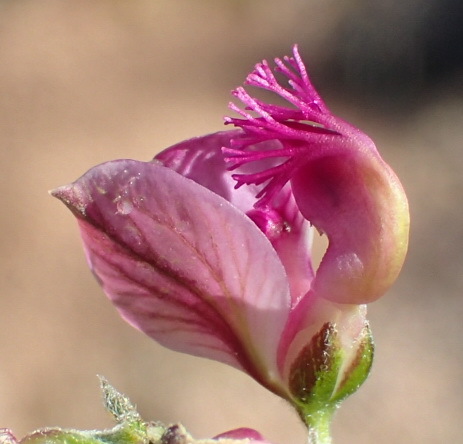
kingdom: Plantae
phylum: Tracheophyta
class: Magnoliopsida
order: Fabales
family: Polygalaceae
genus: Polygala
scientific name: Polygala scabra
